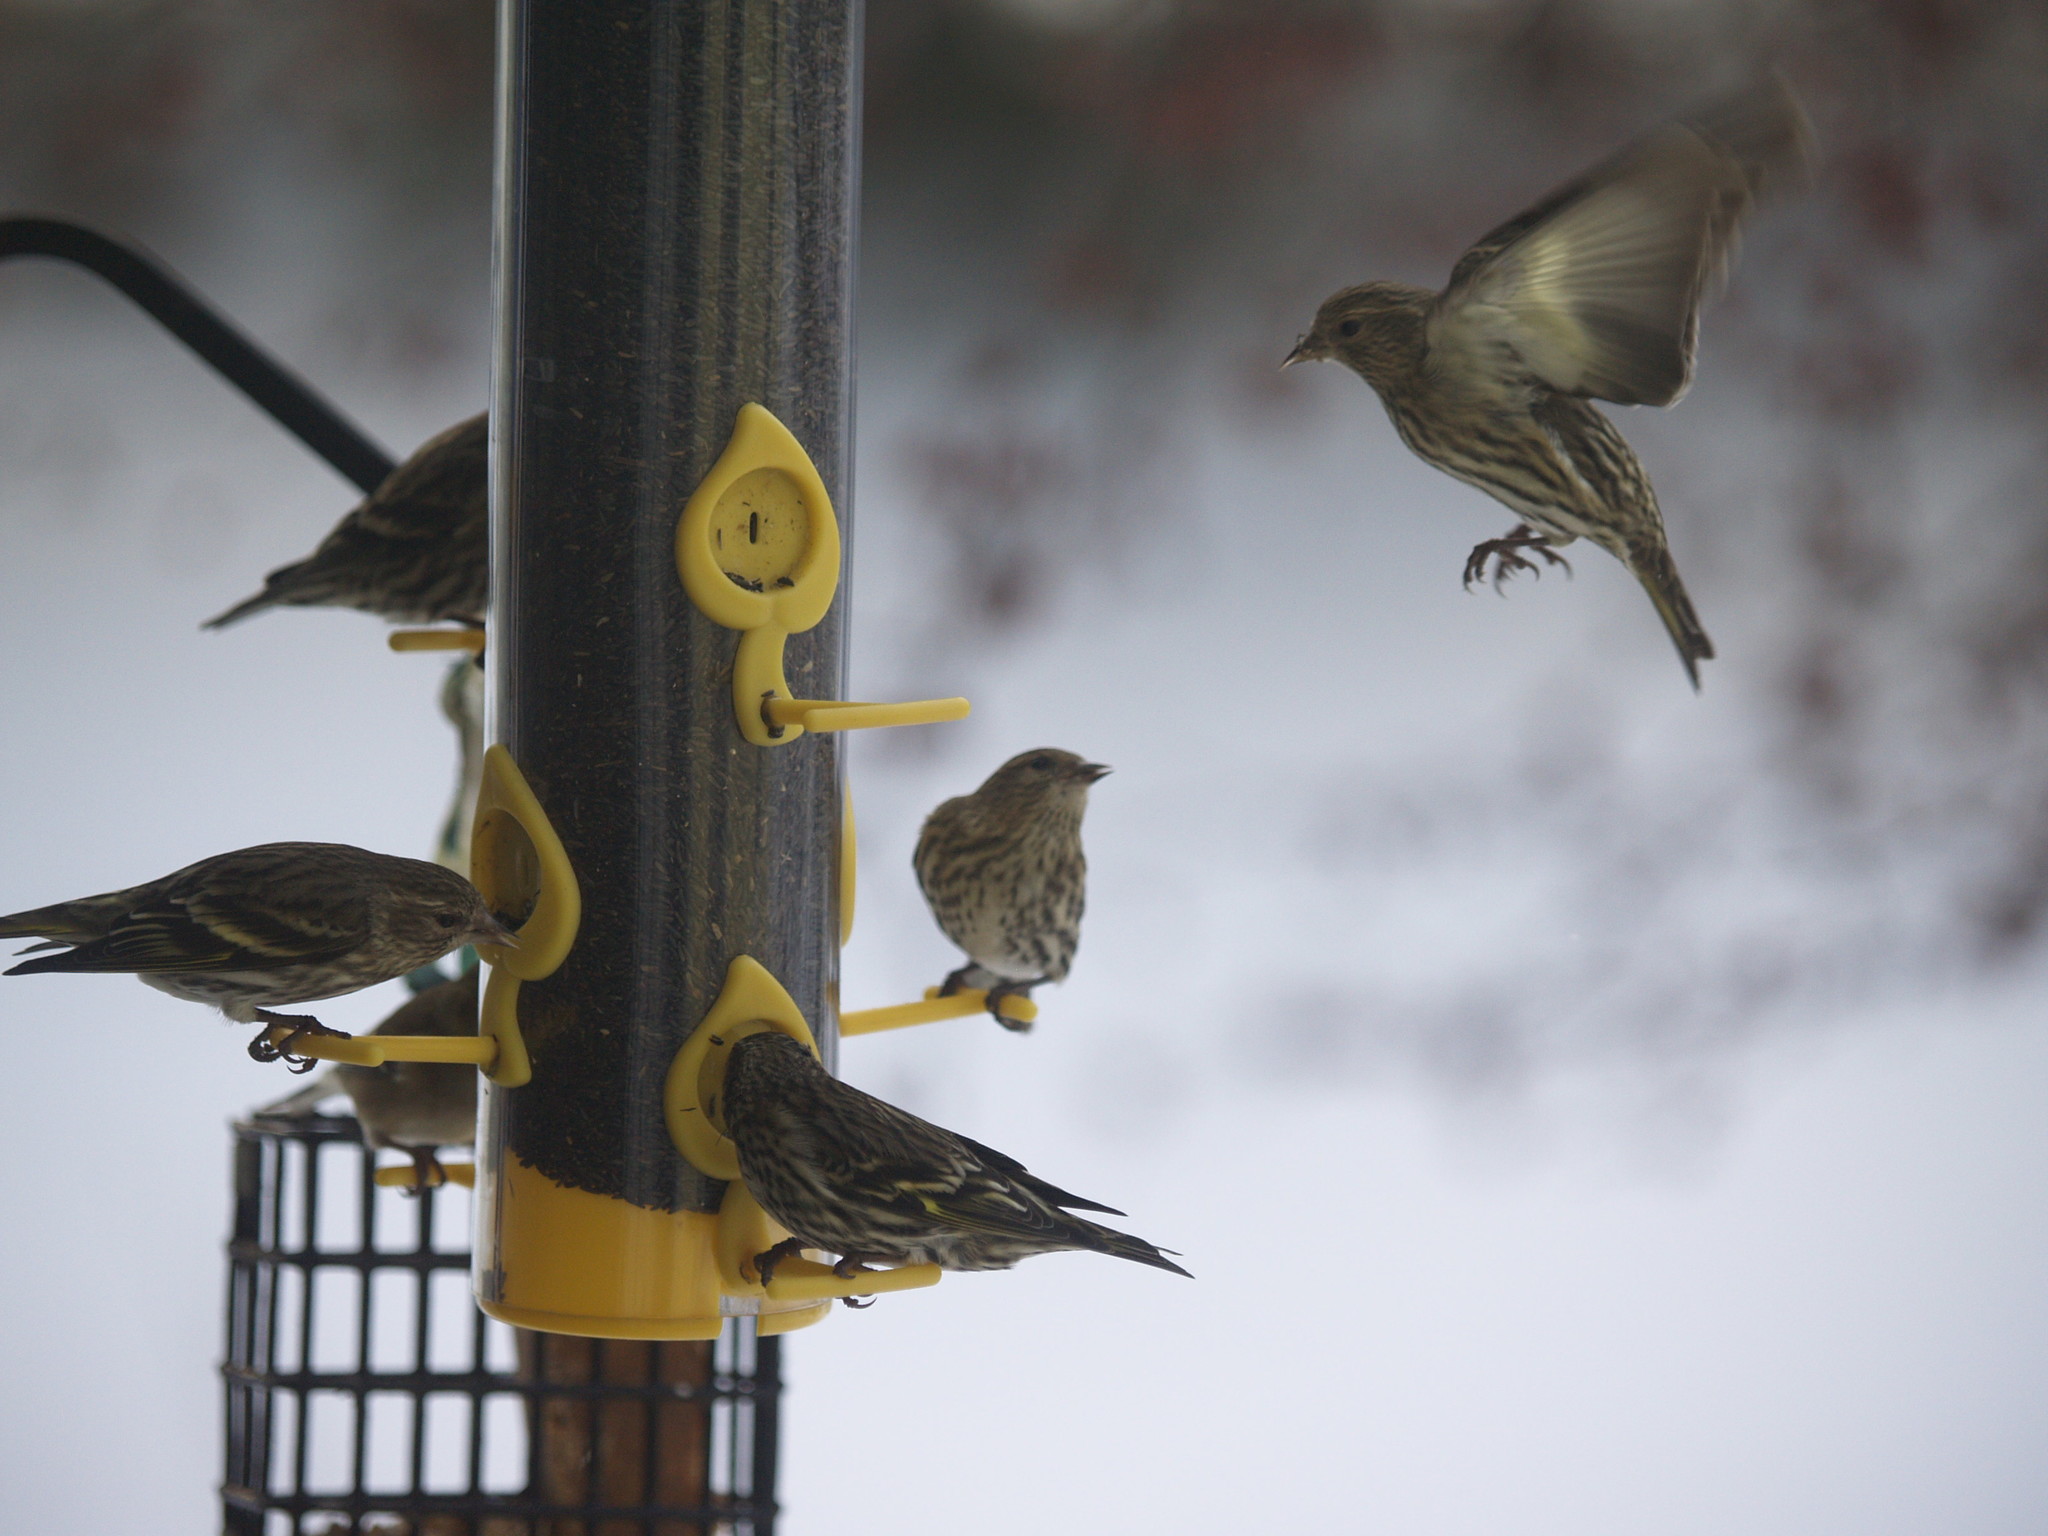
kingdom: Animalia
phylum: Chordata
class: Aves
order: Passeriformes
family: Fringillidae
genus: Spinus
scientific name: Spinus pinus
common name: Pine siskin
